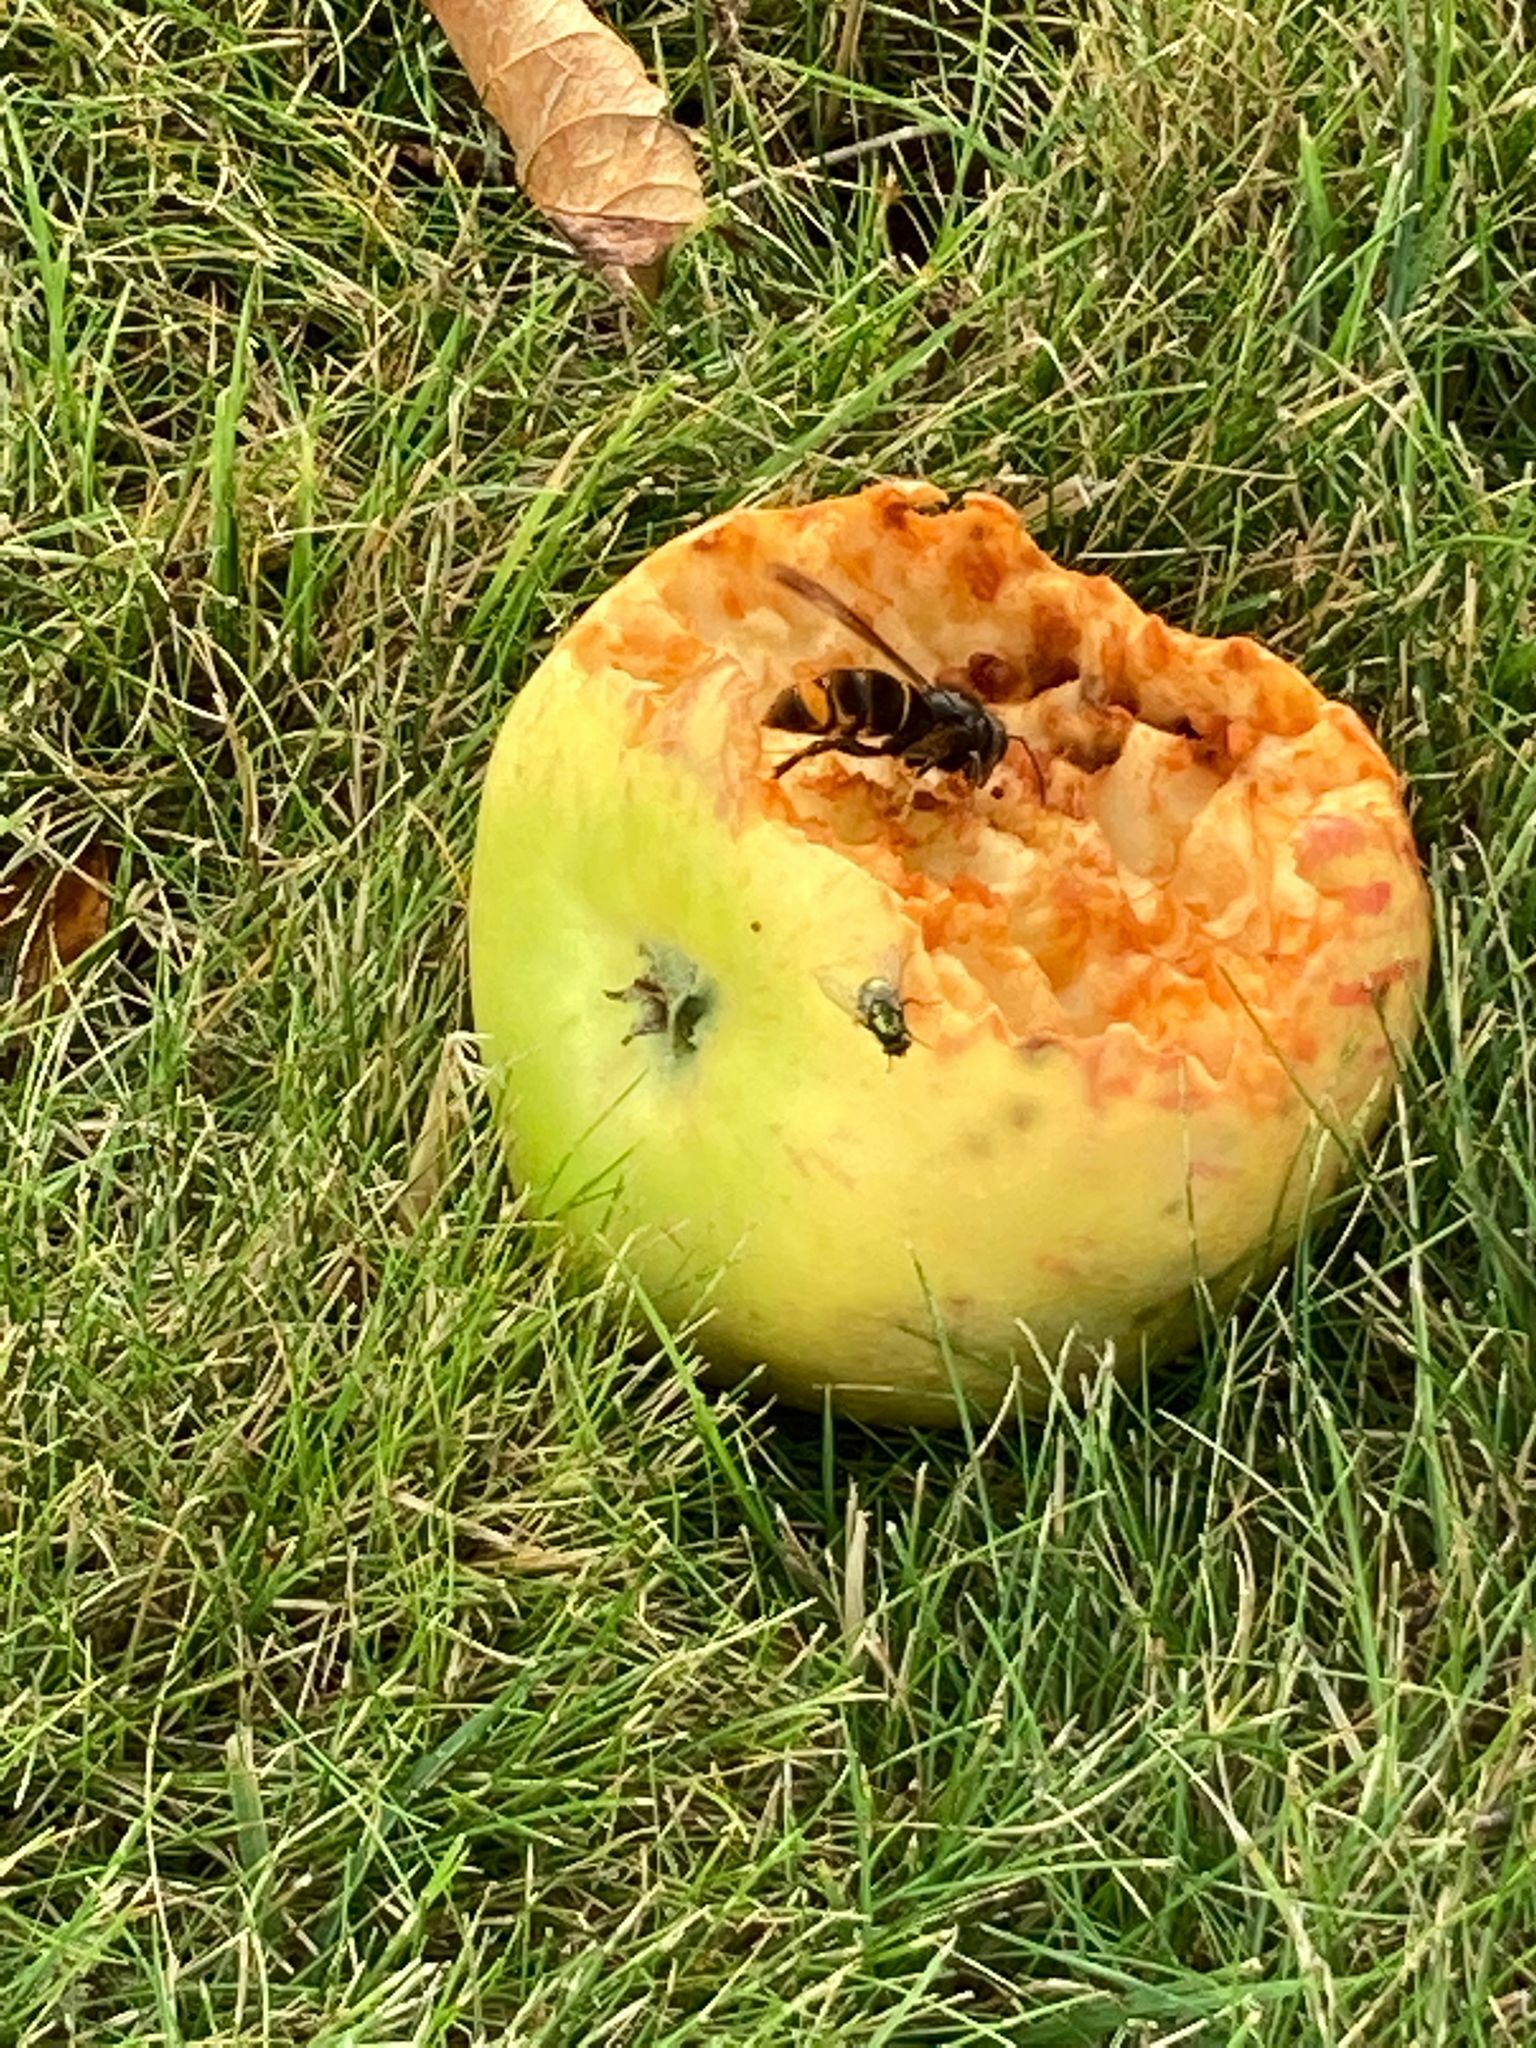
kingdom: Animalia
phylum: Arthropoda
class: Insecta
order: Hymenoptera
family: Vespidae
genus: Vespa
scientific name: Vespa velutina
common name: Asian hornet
